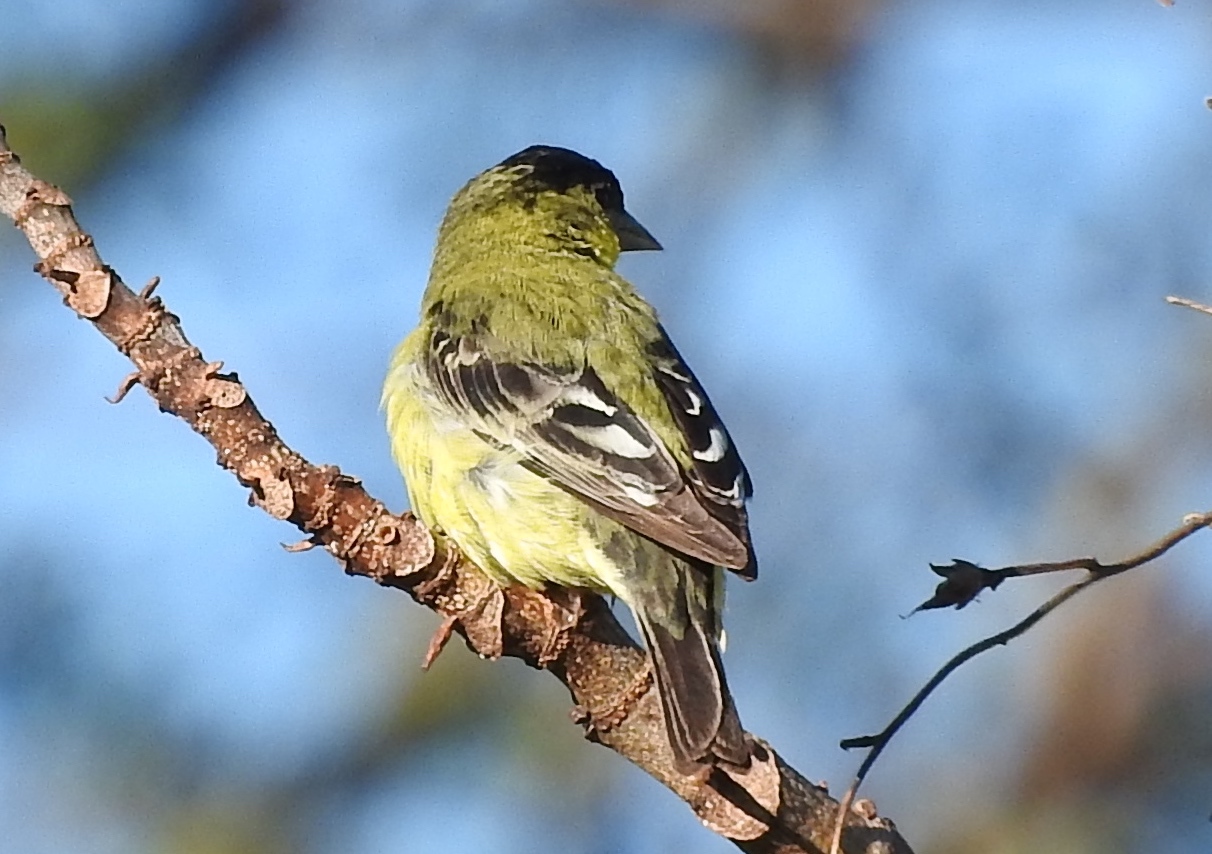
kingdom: Animalia
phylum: Chordata
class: Aves
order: Passeriformes
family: Fringillidae
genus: Spinus
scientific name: Spinus psaltria
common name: Lesser goldfinch
